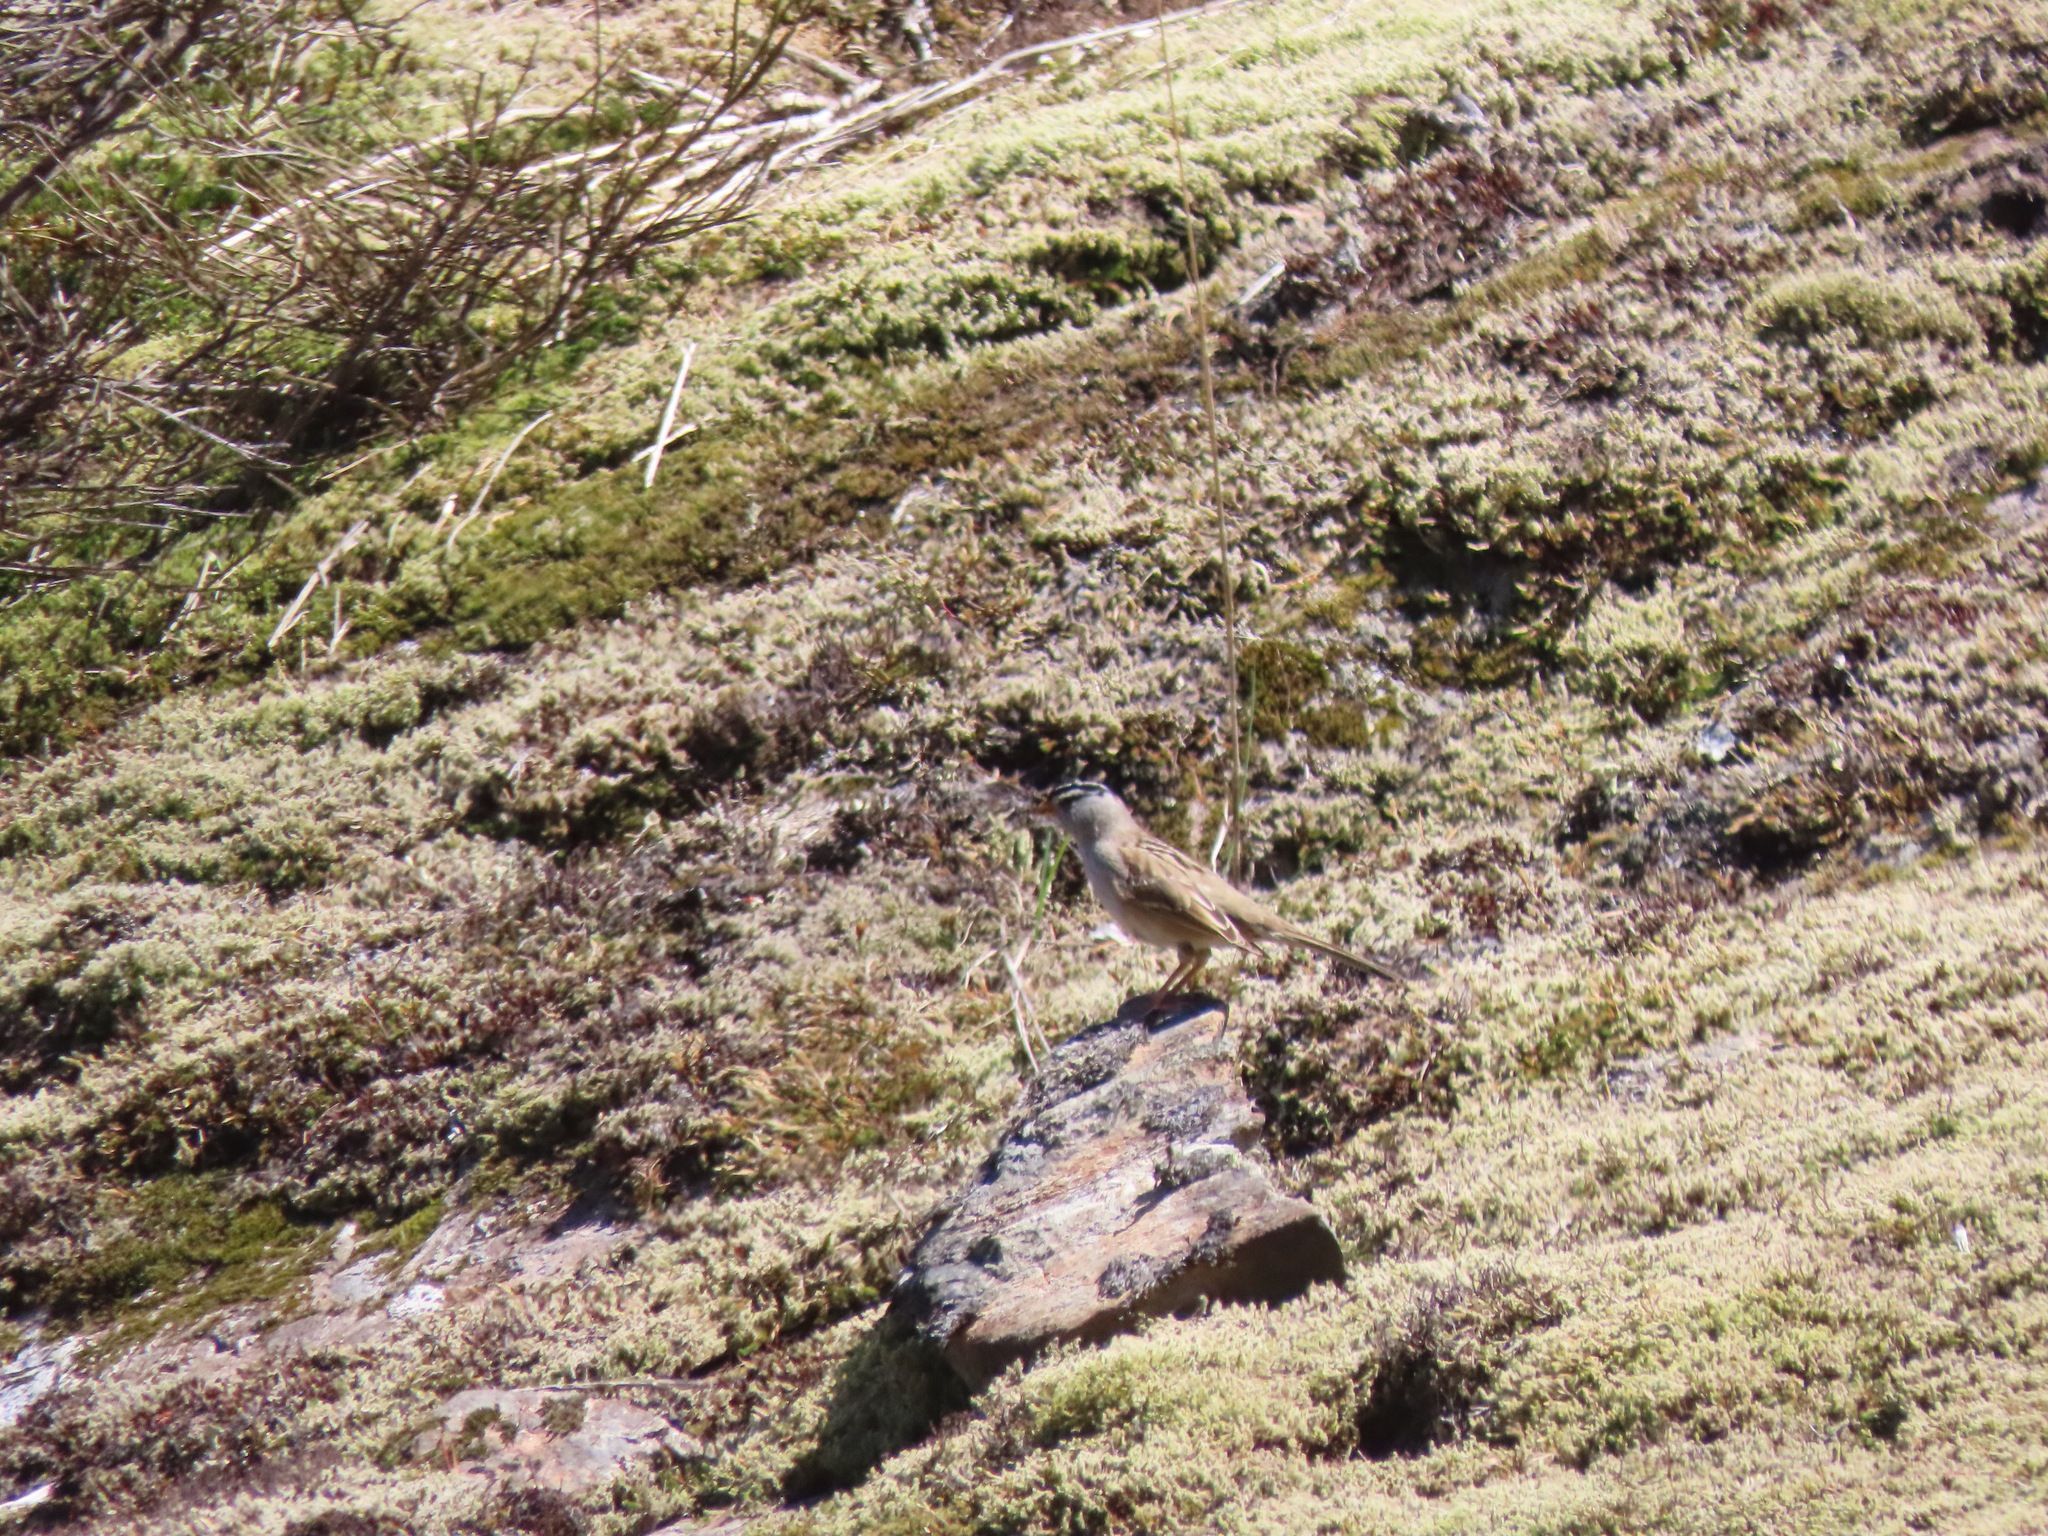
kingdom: Animalia
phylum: Chordata
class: Aves
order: Passeriformes
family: Passerellidae
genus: Zonotrichia
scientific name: Zonotrichia leucophrys
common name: White-crowned sparrow
